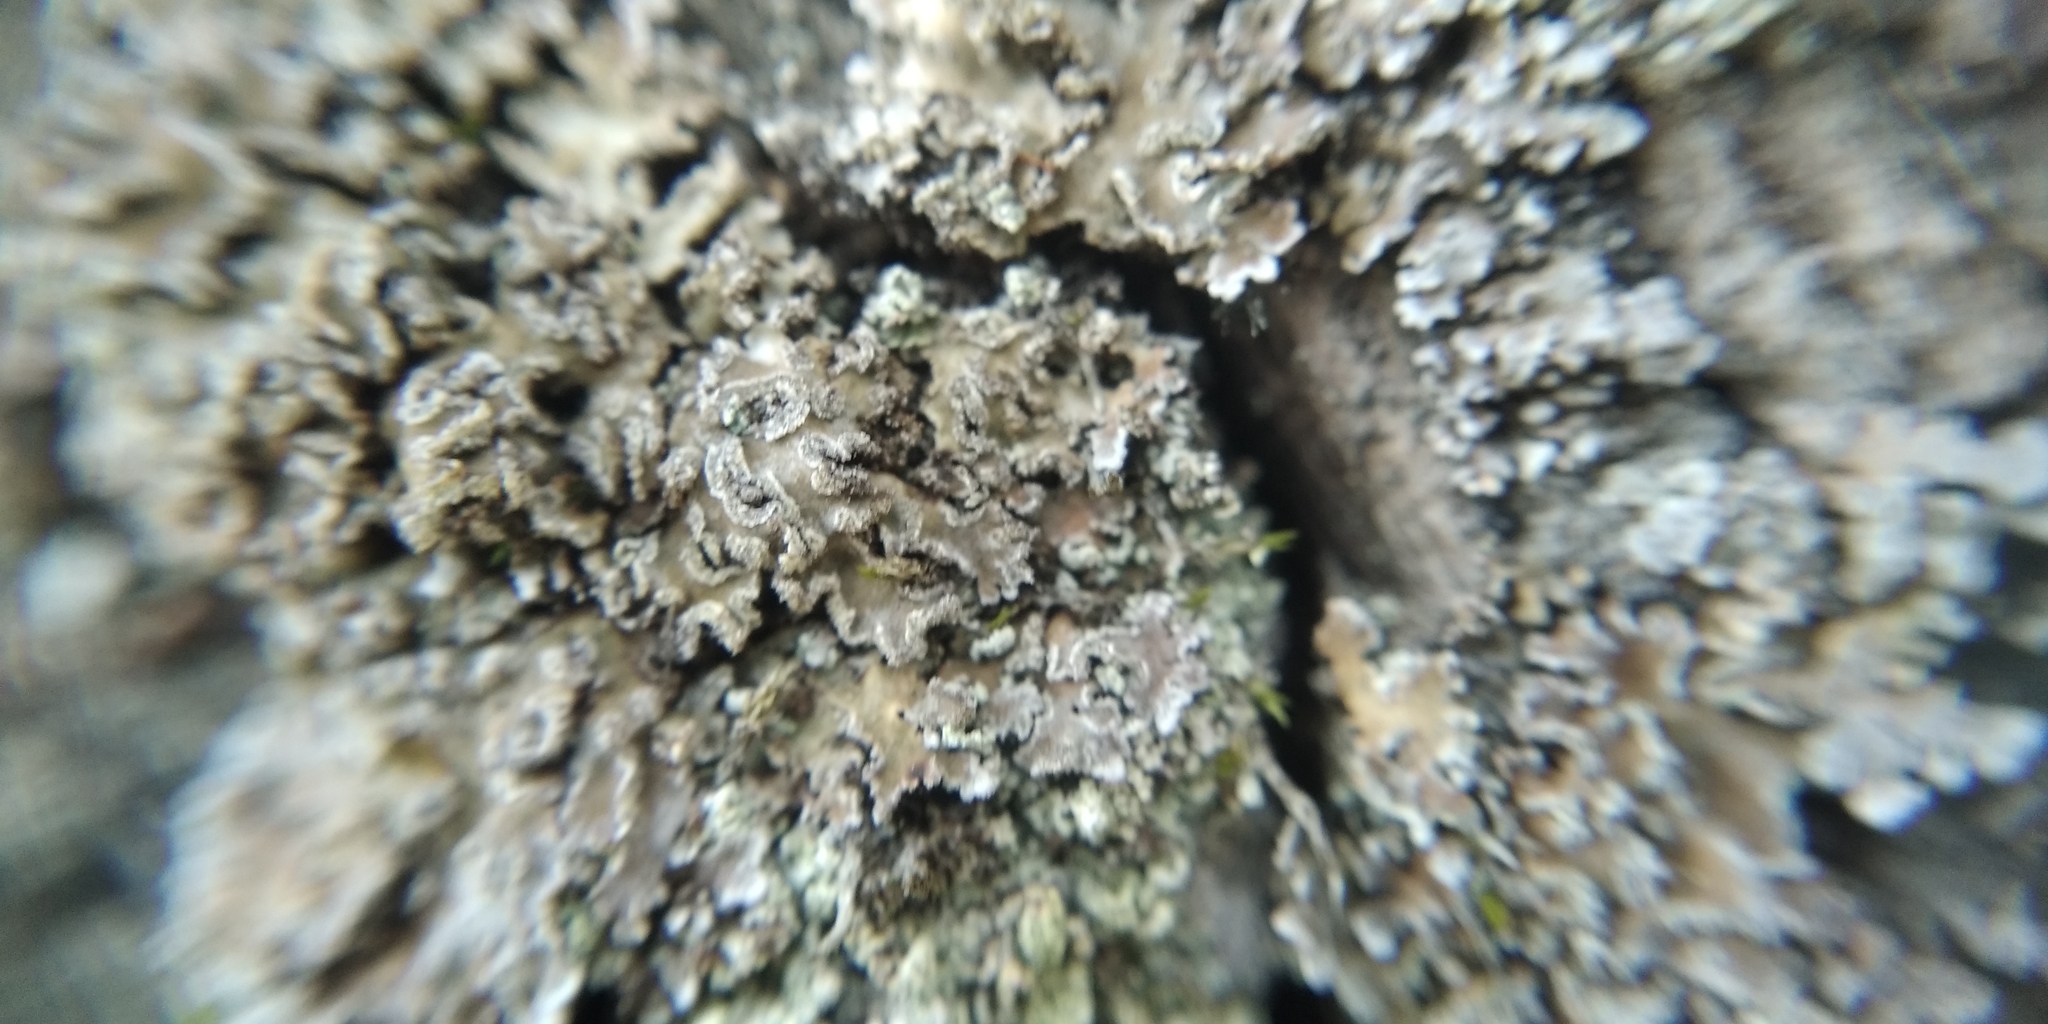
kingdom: Fungi
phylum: Ascomycota
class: Lecanoromycetes
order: Caliciales
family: Physciaceae
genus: Physconia
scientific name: Physconia enteroxantha
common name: Yellow-edged frost lichen
